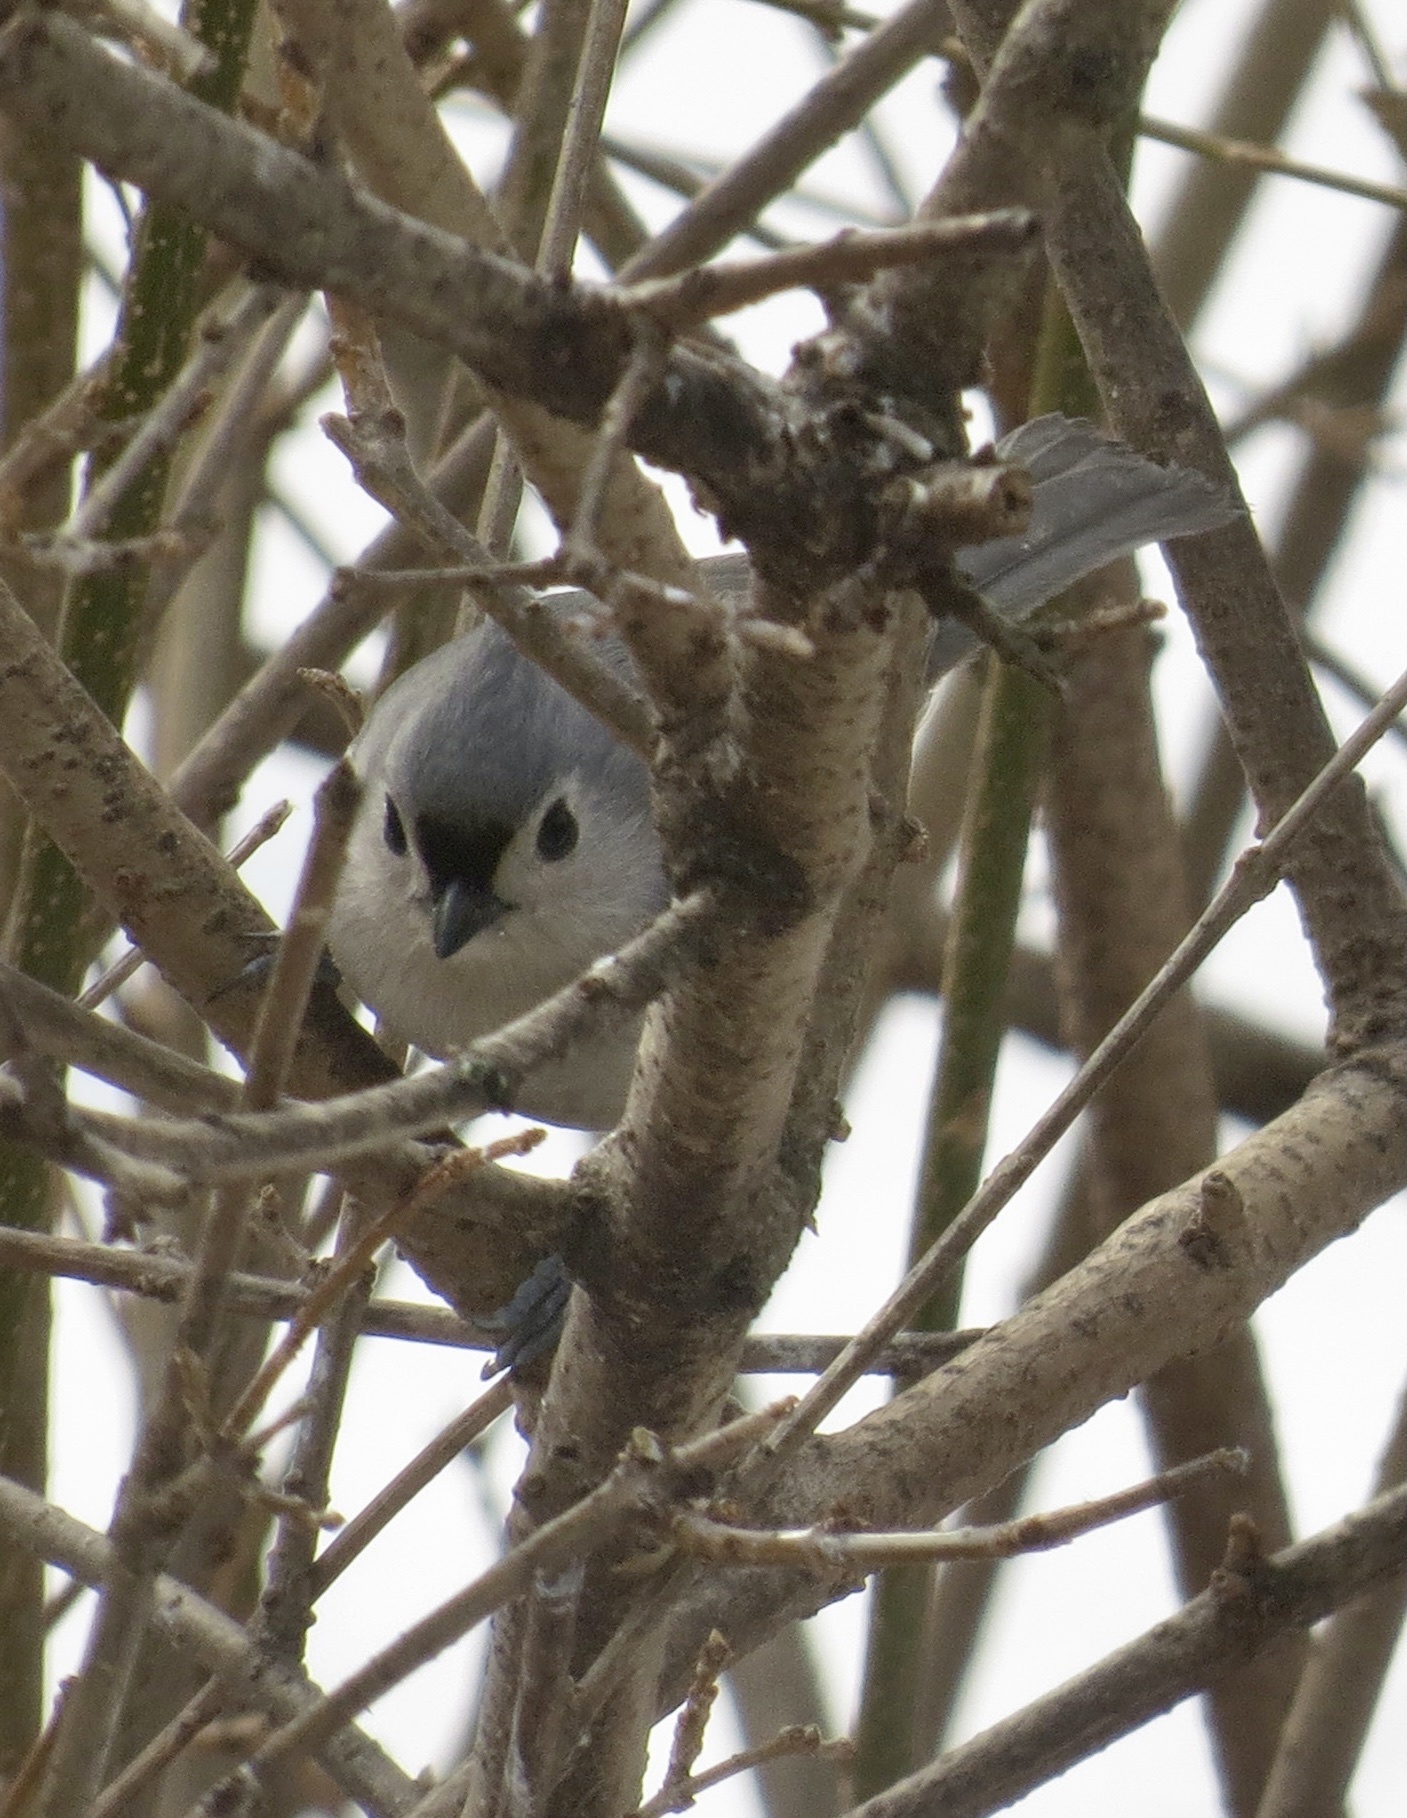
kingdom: Animalia
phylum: Chordata
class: Aves
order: Passeriformes
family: Paridae
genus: Baeolophus
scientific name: Baeolophus bicolor
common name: Tufted titmouse
